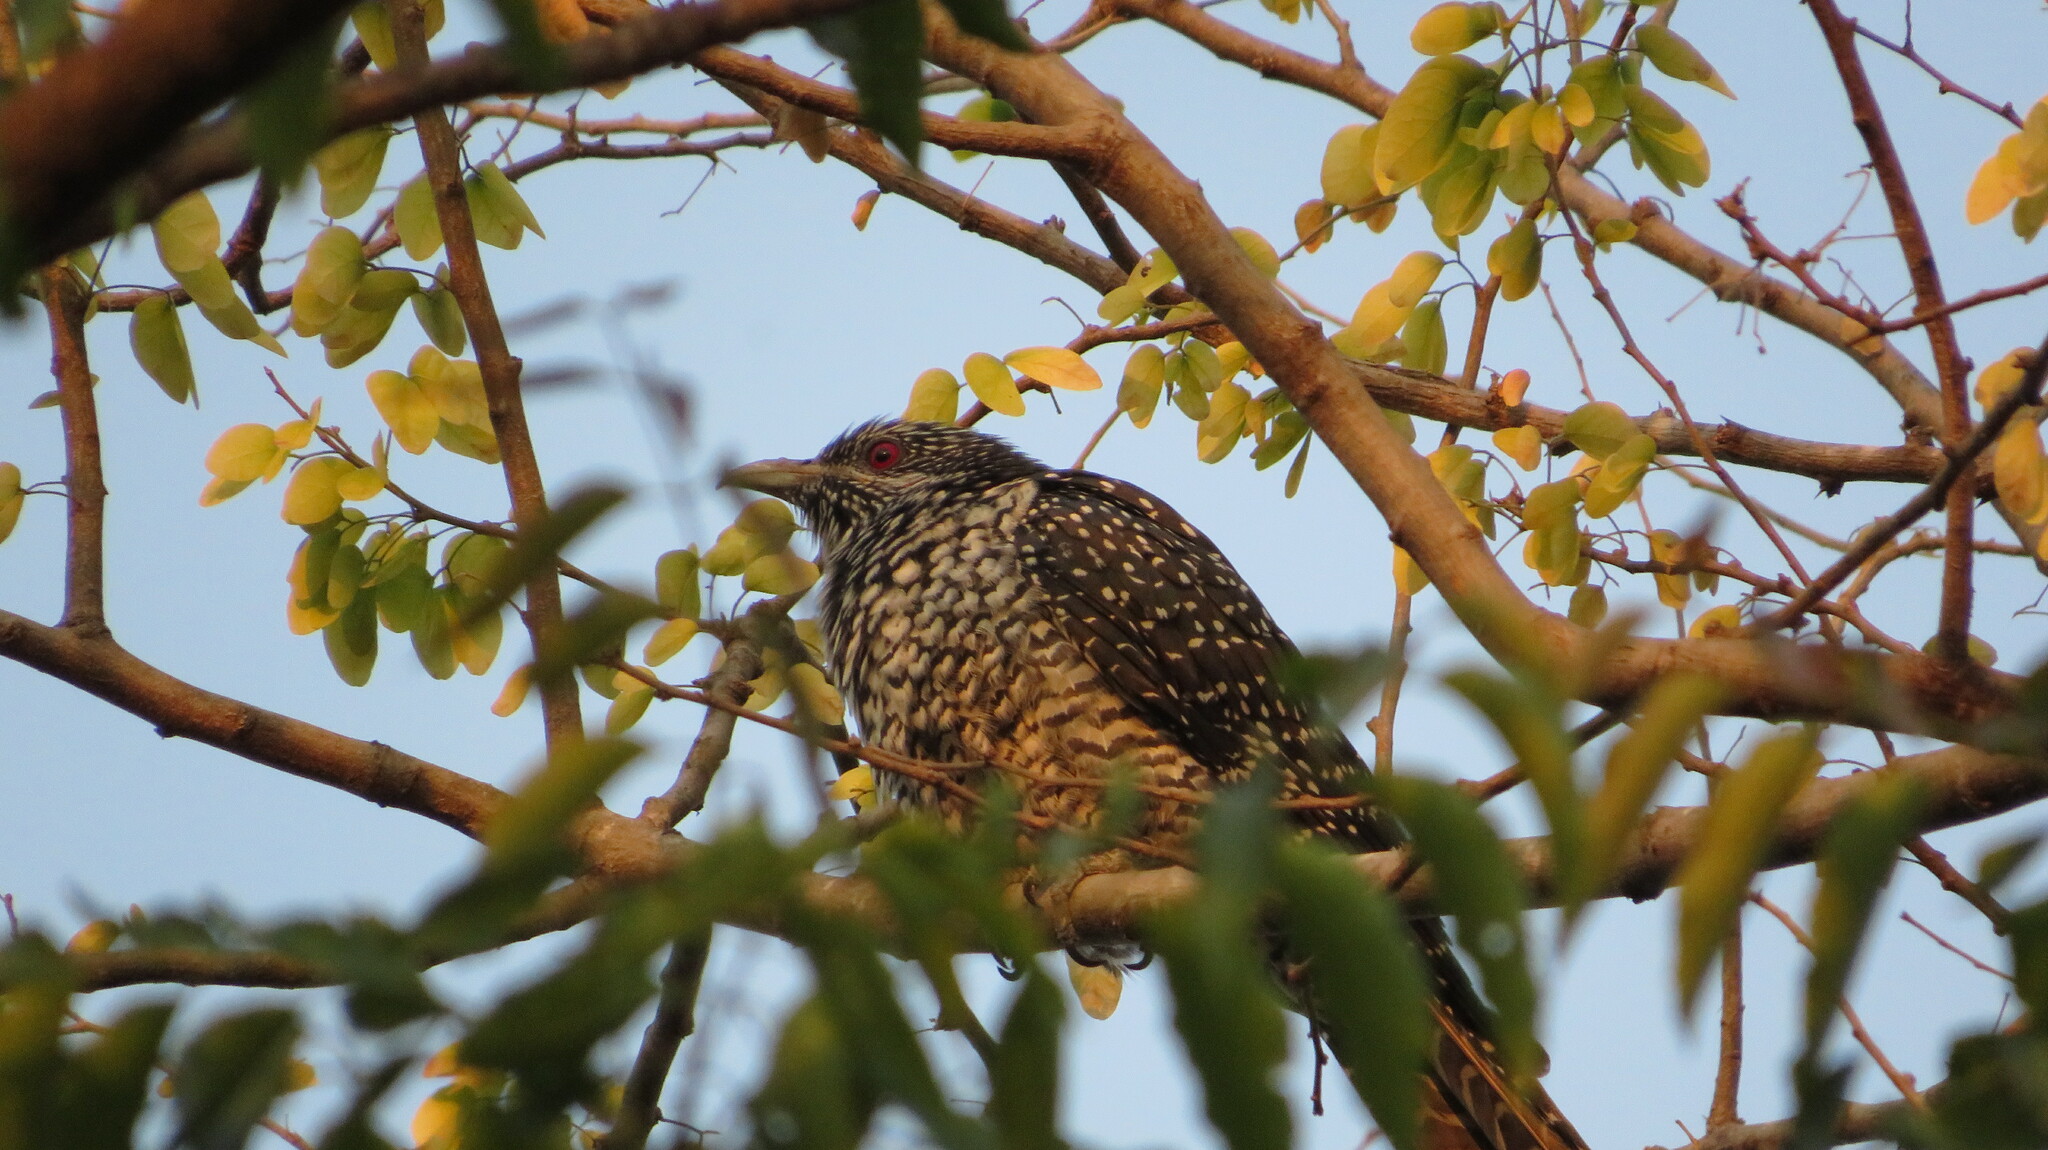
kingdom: Animalia
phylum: Chordata
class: Aves
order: Cuculiformes
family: Cuculidae
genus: Eudynamys
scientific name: Eudynamys scolopaceus
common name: Asian koel
